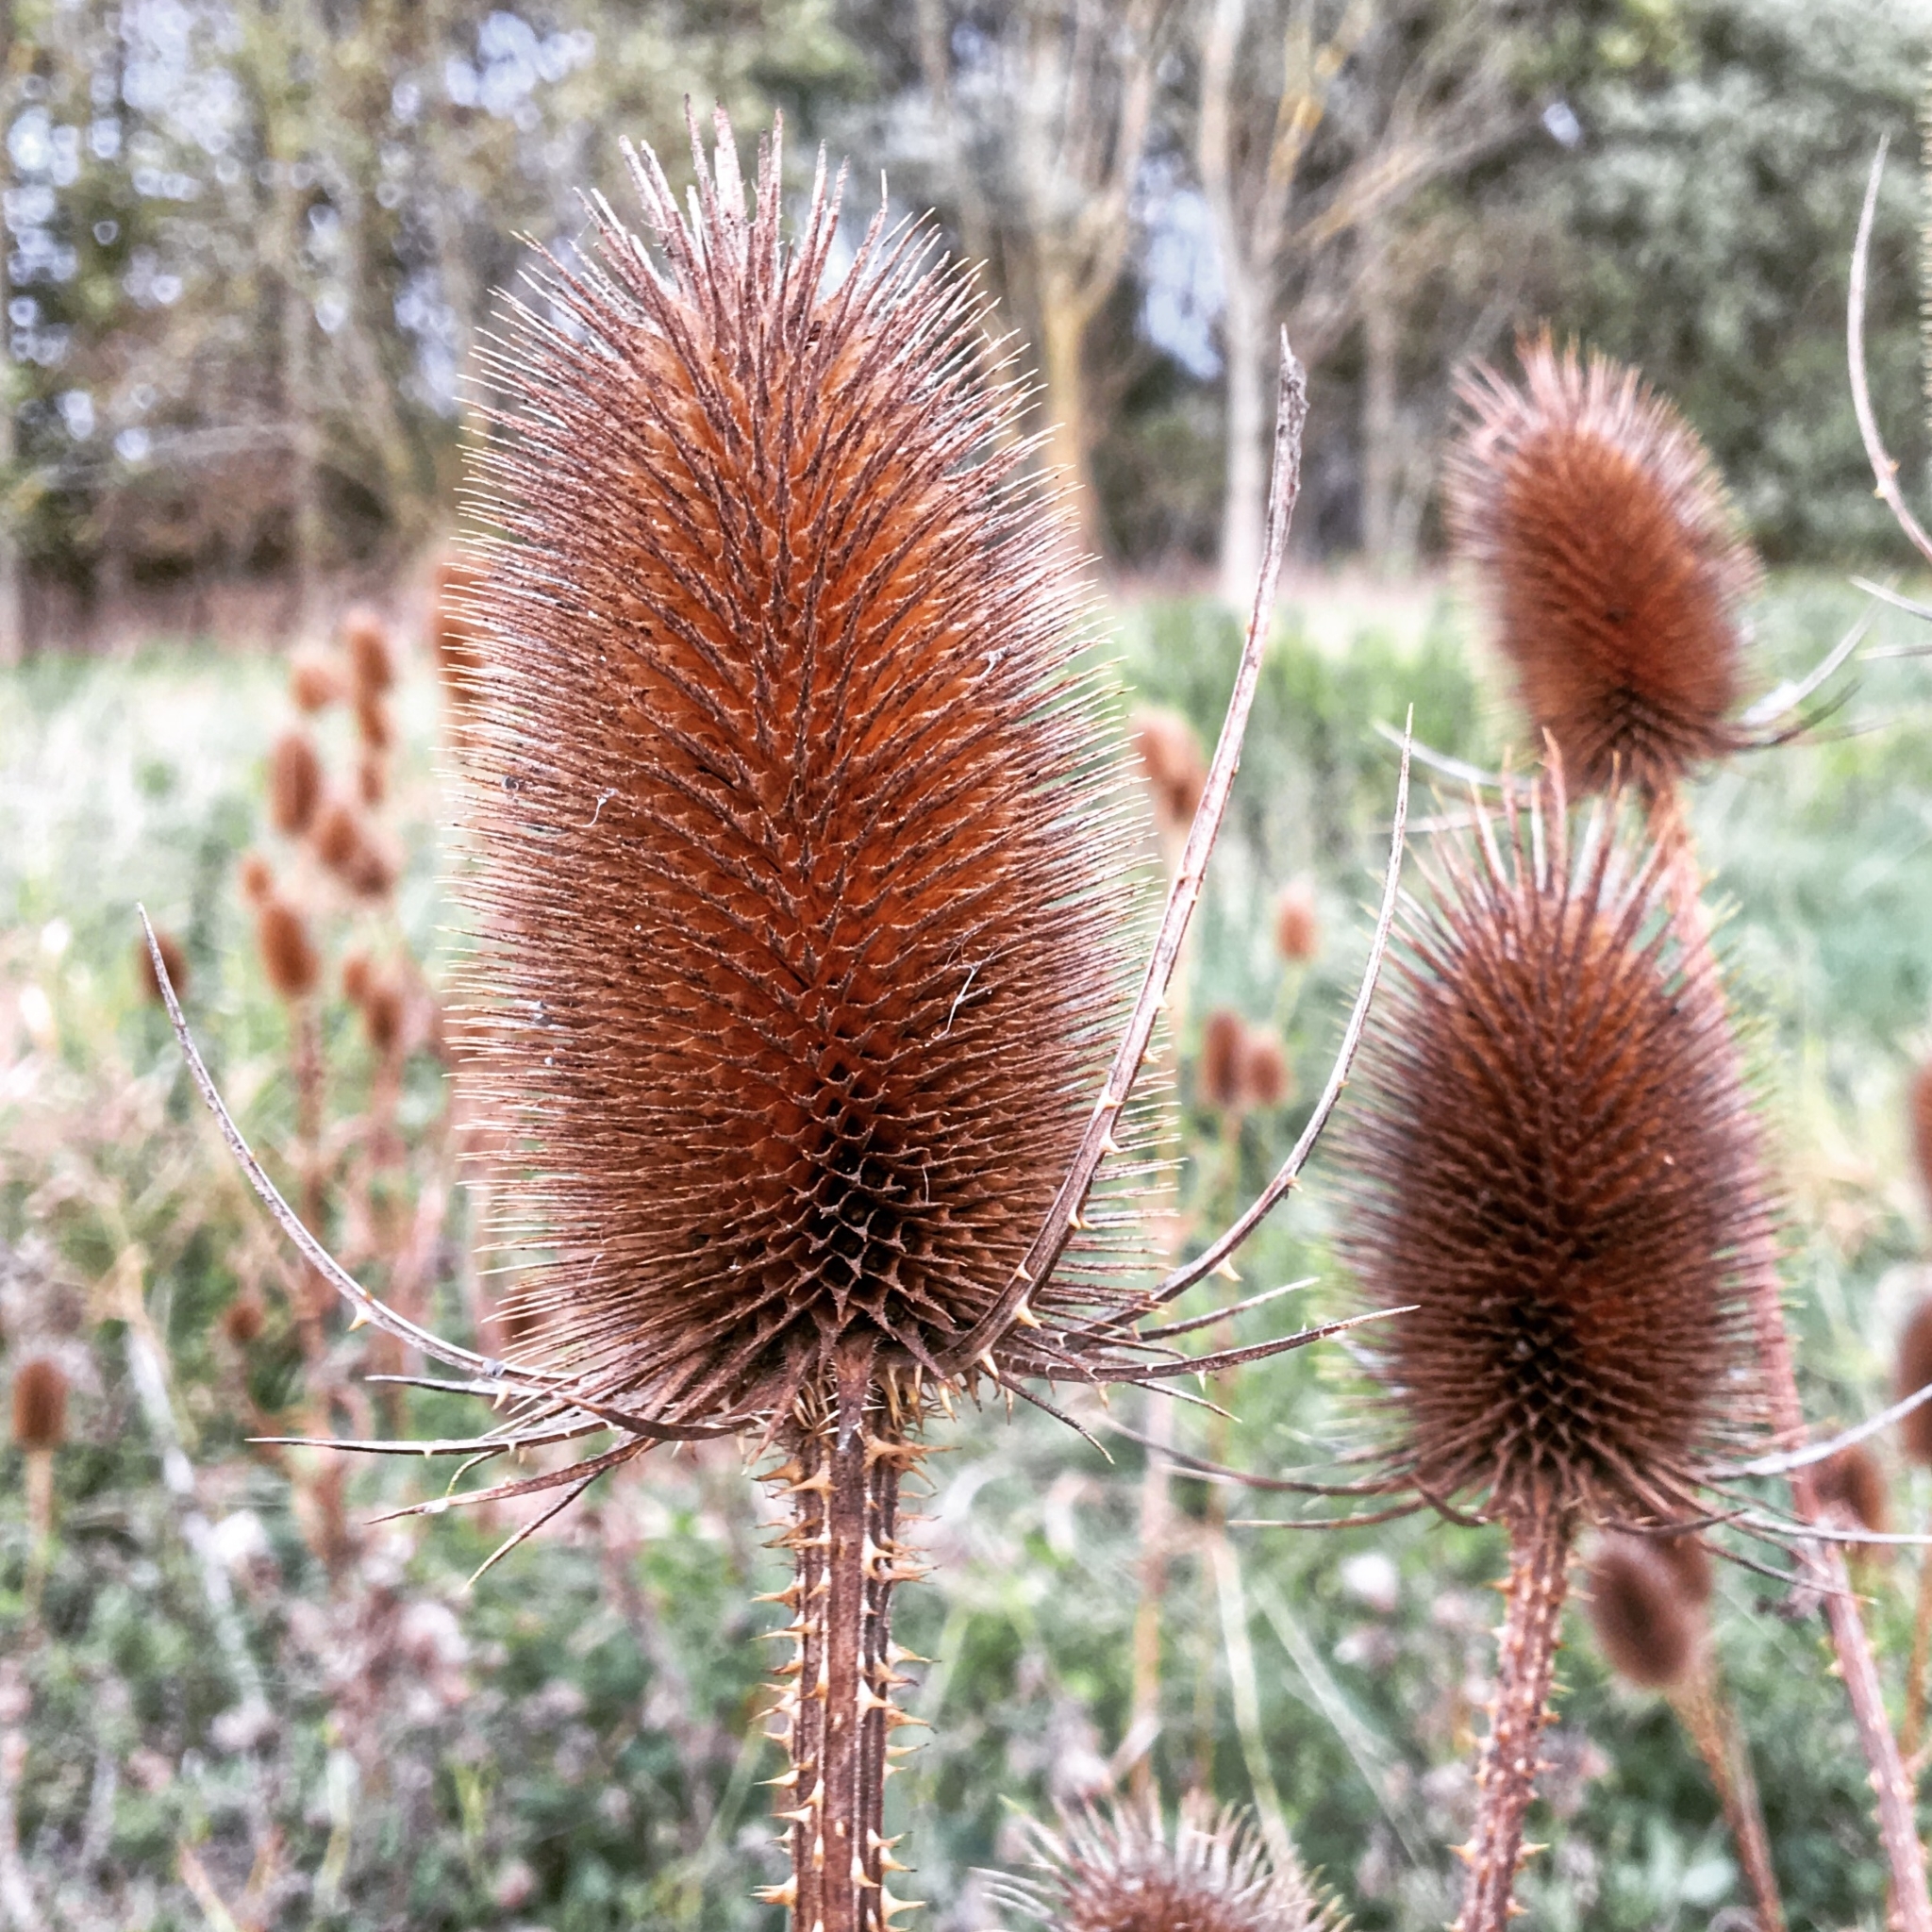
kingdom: Plantae
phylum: Tracheophyta
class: Magnoliopsida
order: Dipsacales
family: Caprifoliaceae
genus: Dipsacus
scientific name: Dipsacus fullonum
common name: Teasel
